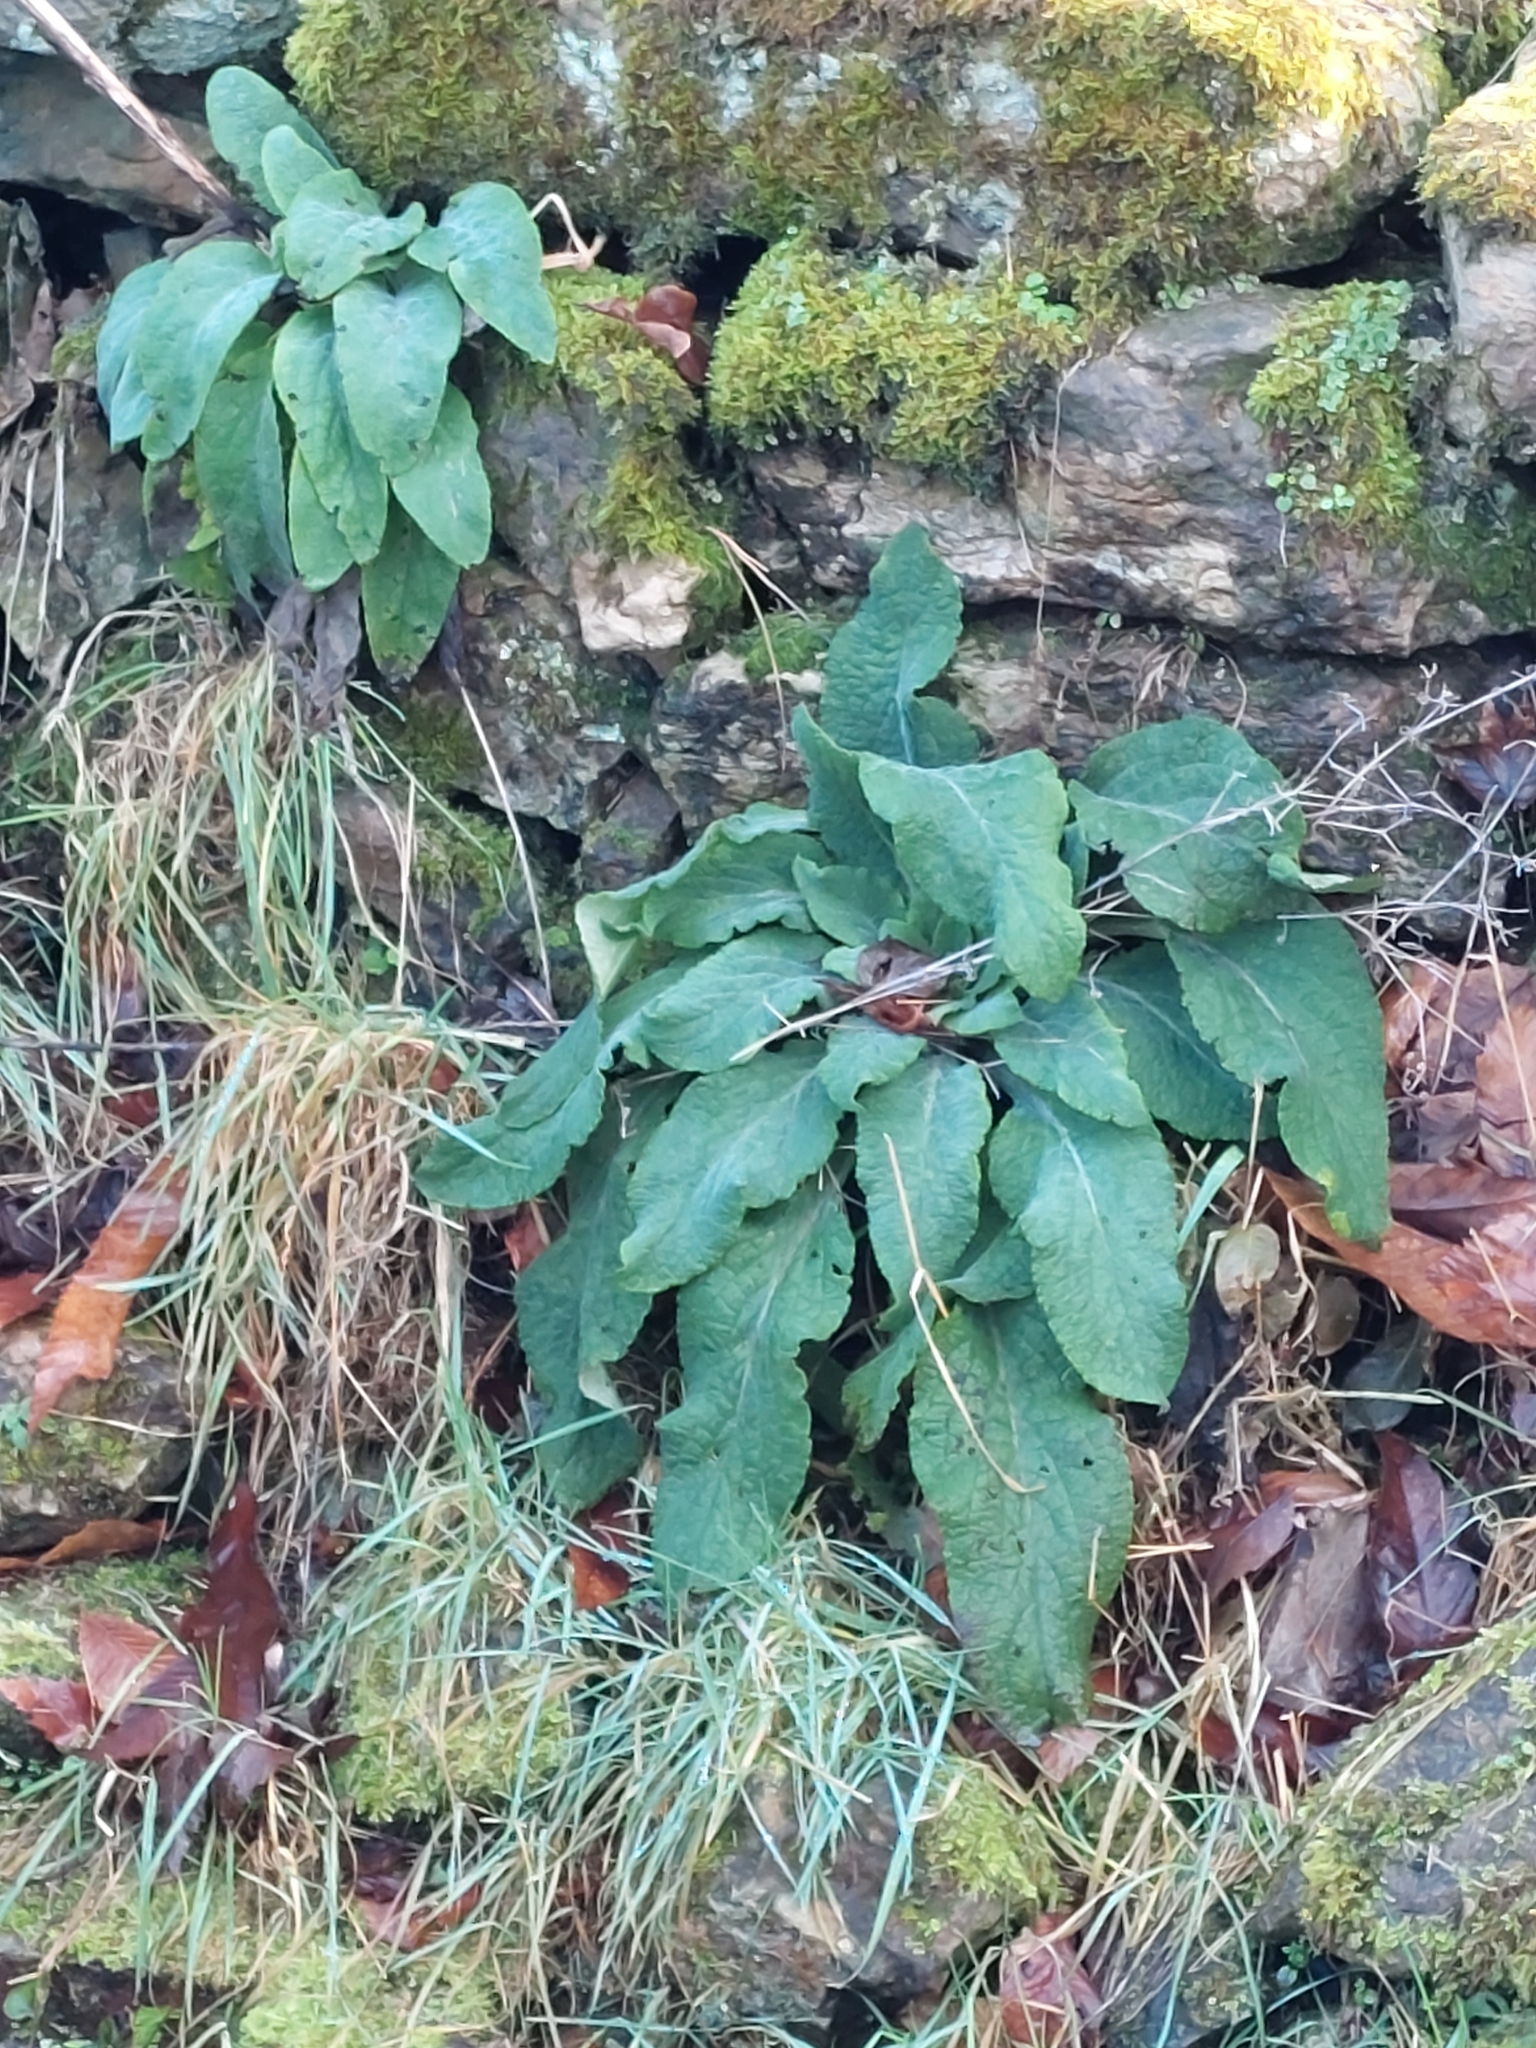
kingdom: Plantae
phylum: Tracheophyta
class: Magnoliopsida
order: Lamiales
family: Plantaginaceae
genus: Digitalis
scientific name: Digitalis purpurea
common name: Foxglove
